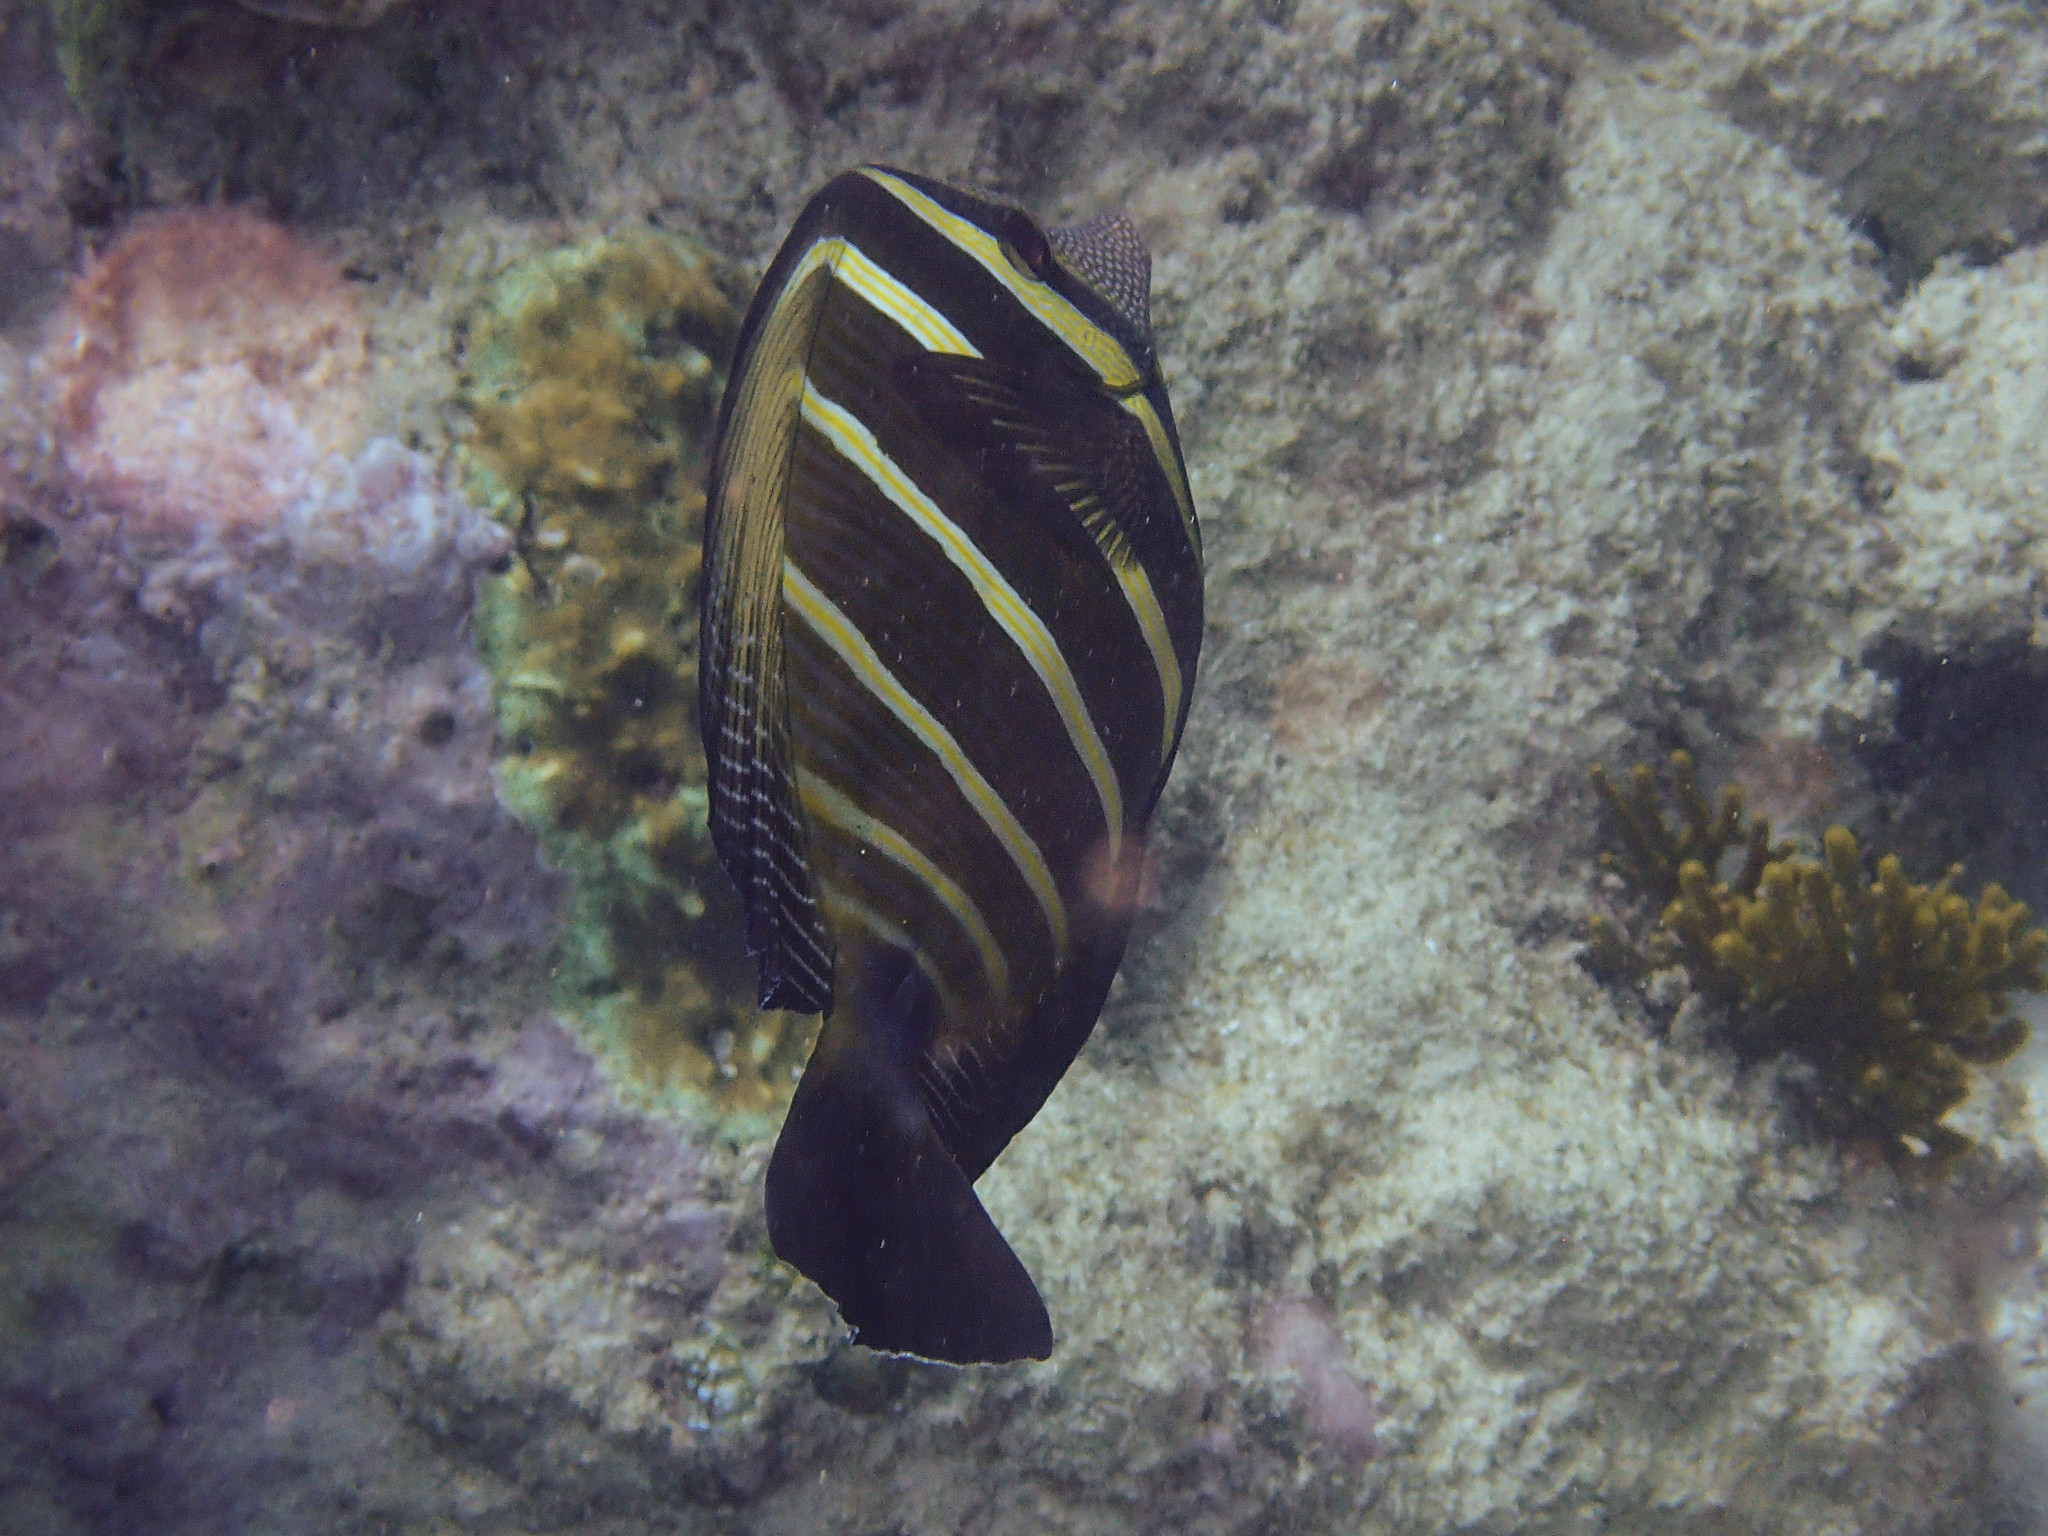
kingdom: Animalia
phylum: Chordata
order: Perciformes
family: Acanthuridae
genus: Zebrasoma
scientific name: Zebrasoma veliferum
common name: Sailfin surgeonfish
